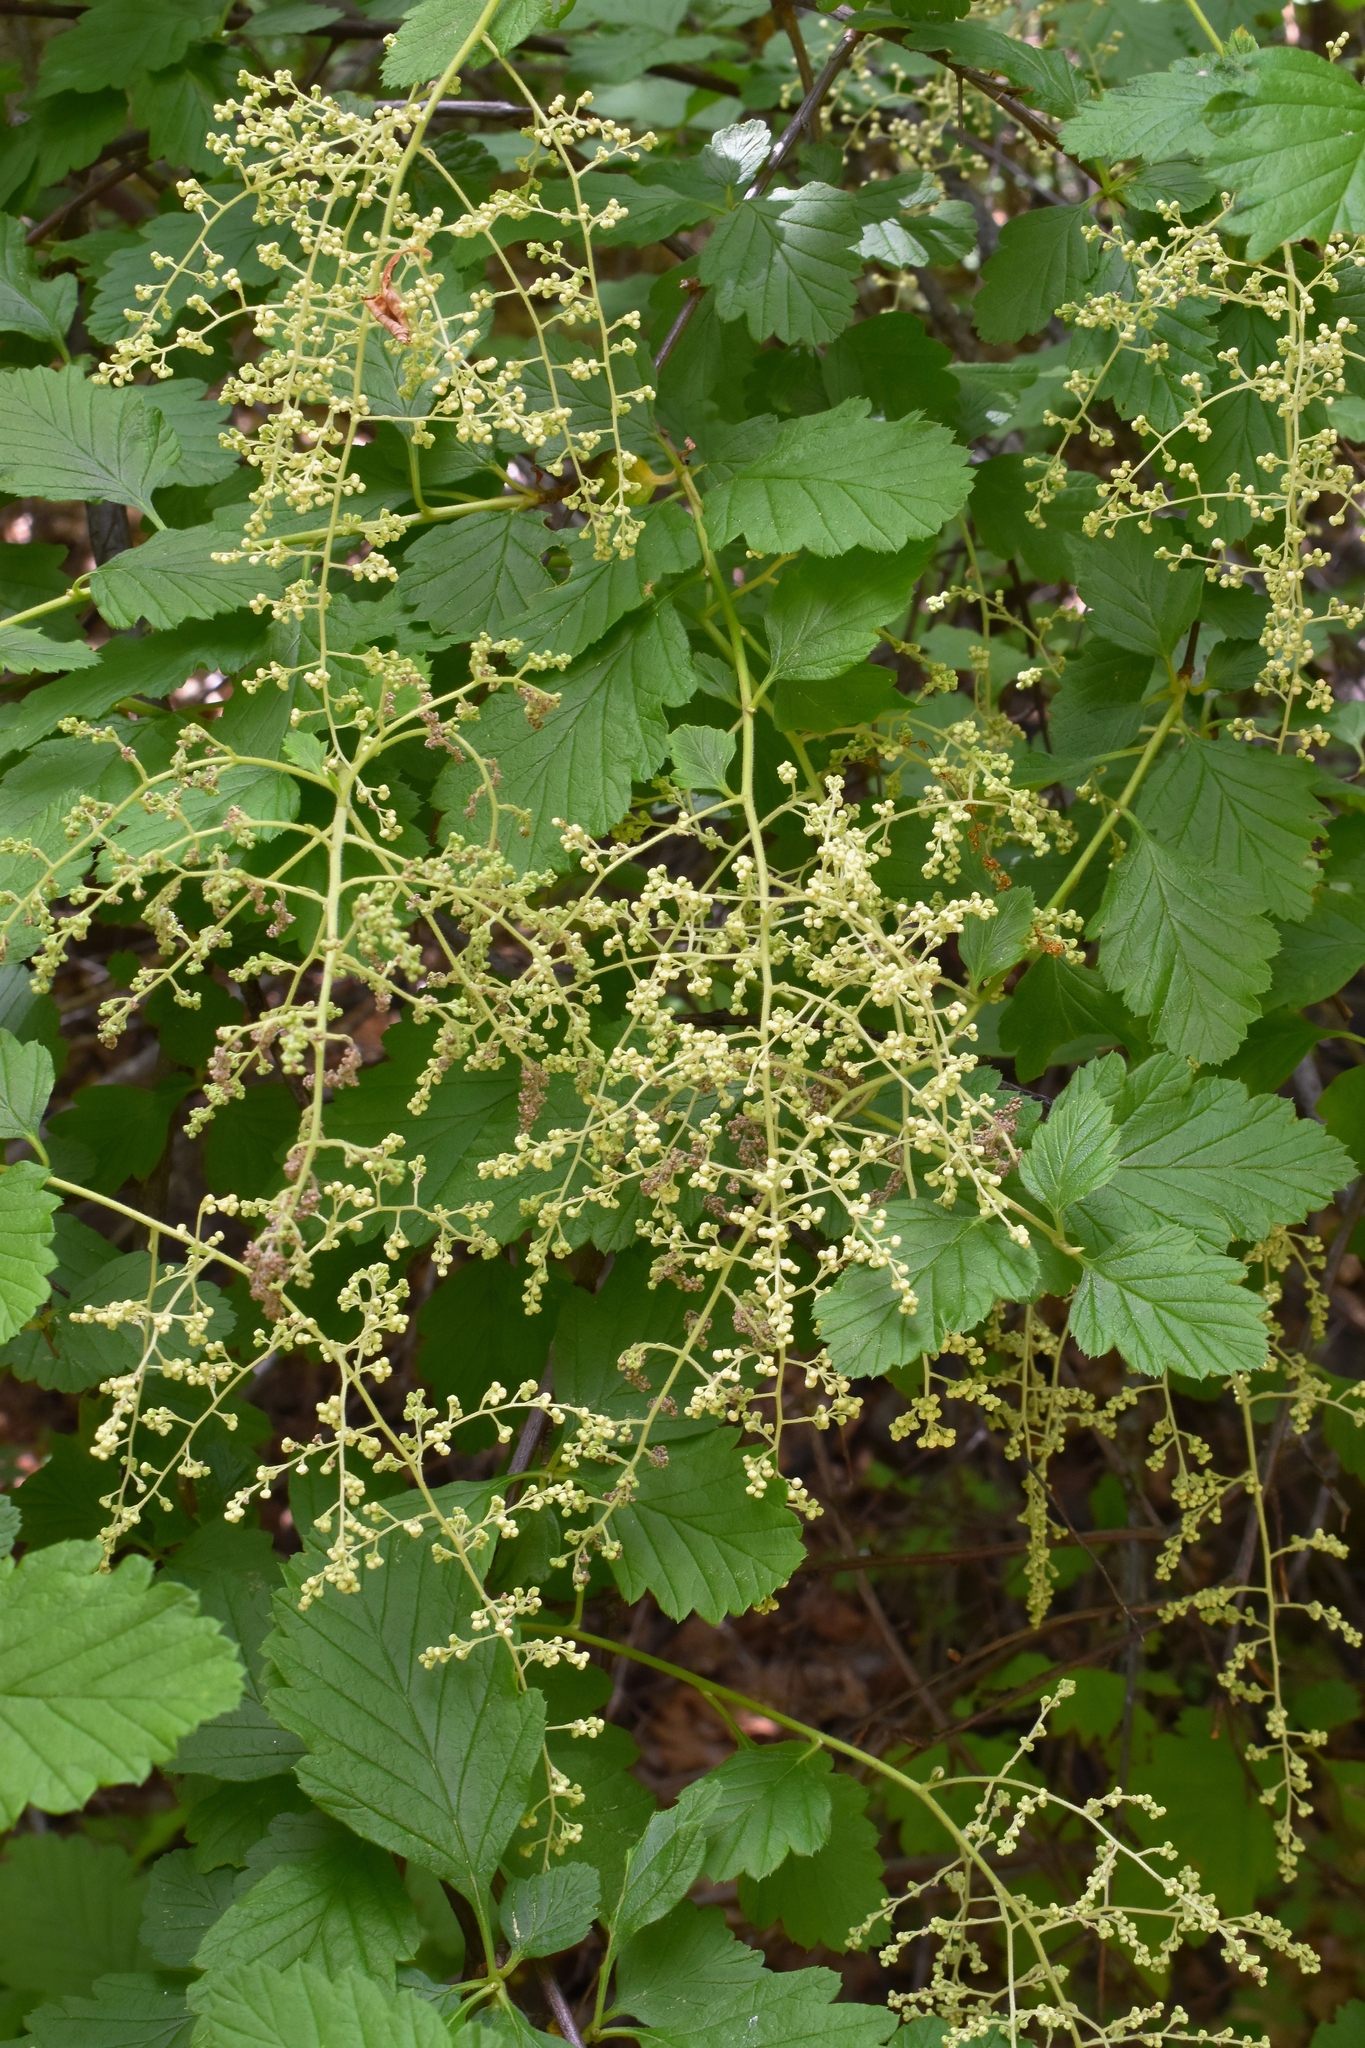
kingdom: Plantae
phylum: Tracheophyta
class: Magnoliopsida
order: Rosales
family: Rosaceae
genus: Holodiscus
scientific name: Holodiscus discolor
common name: Oceanspray
